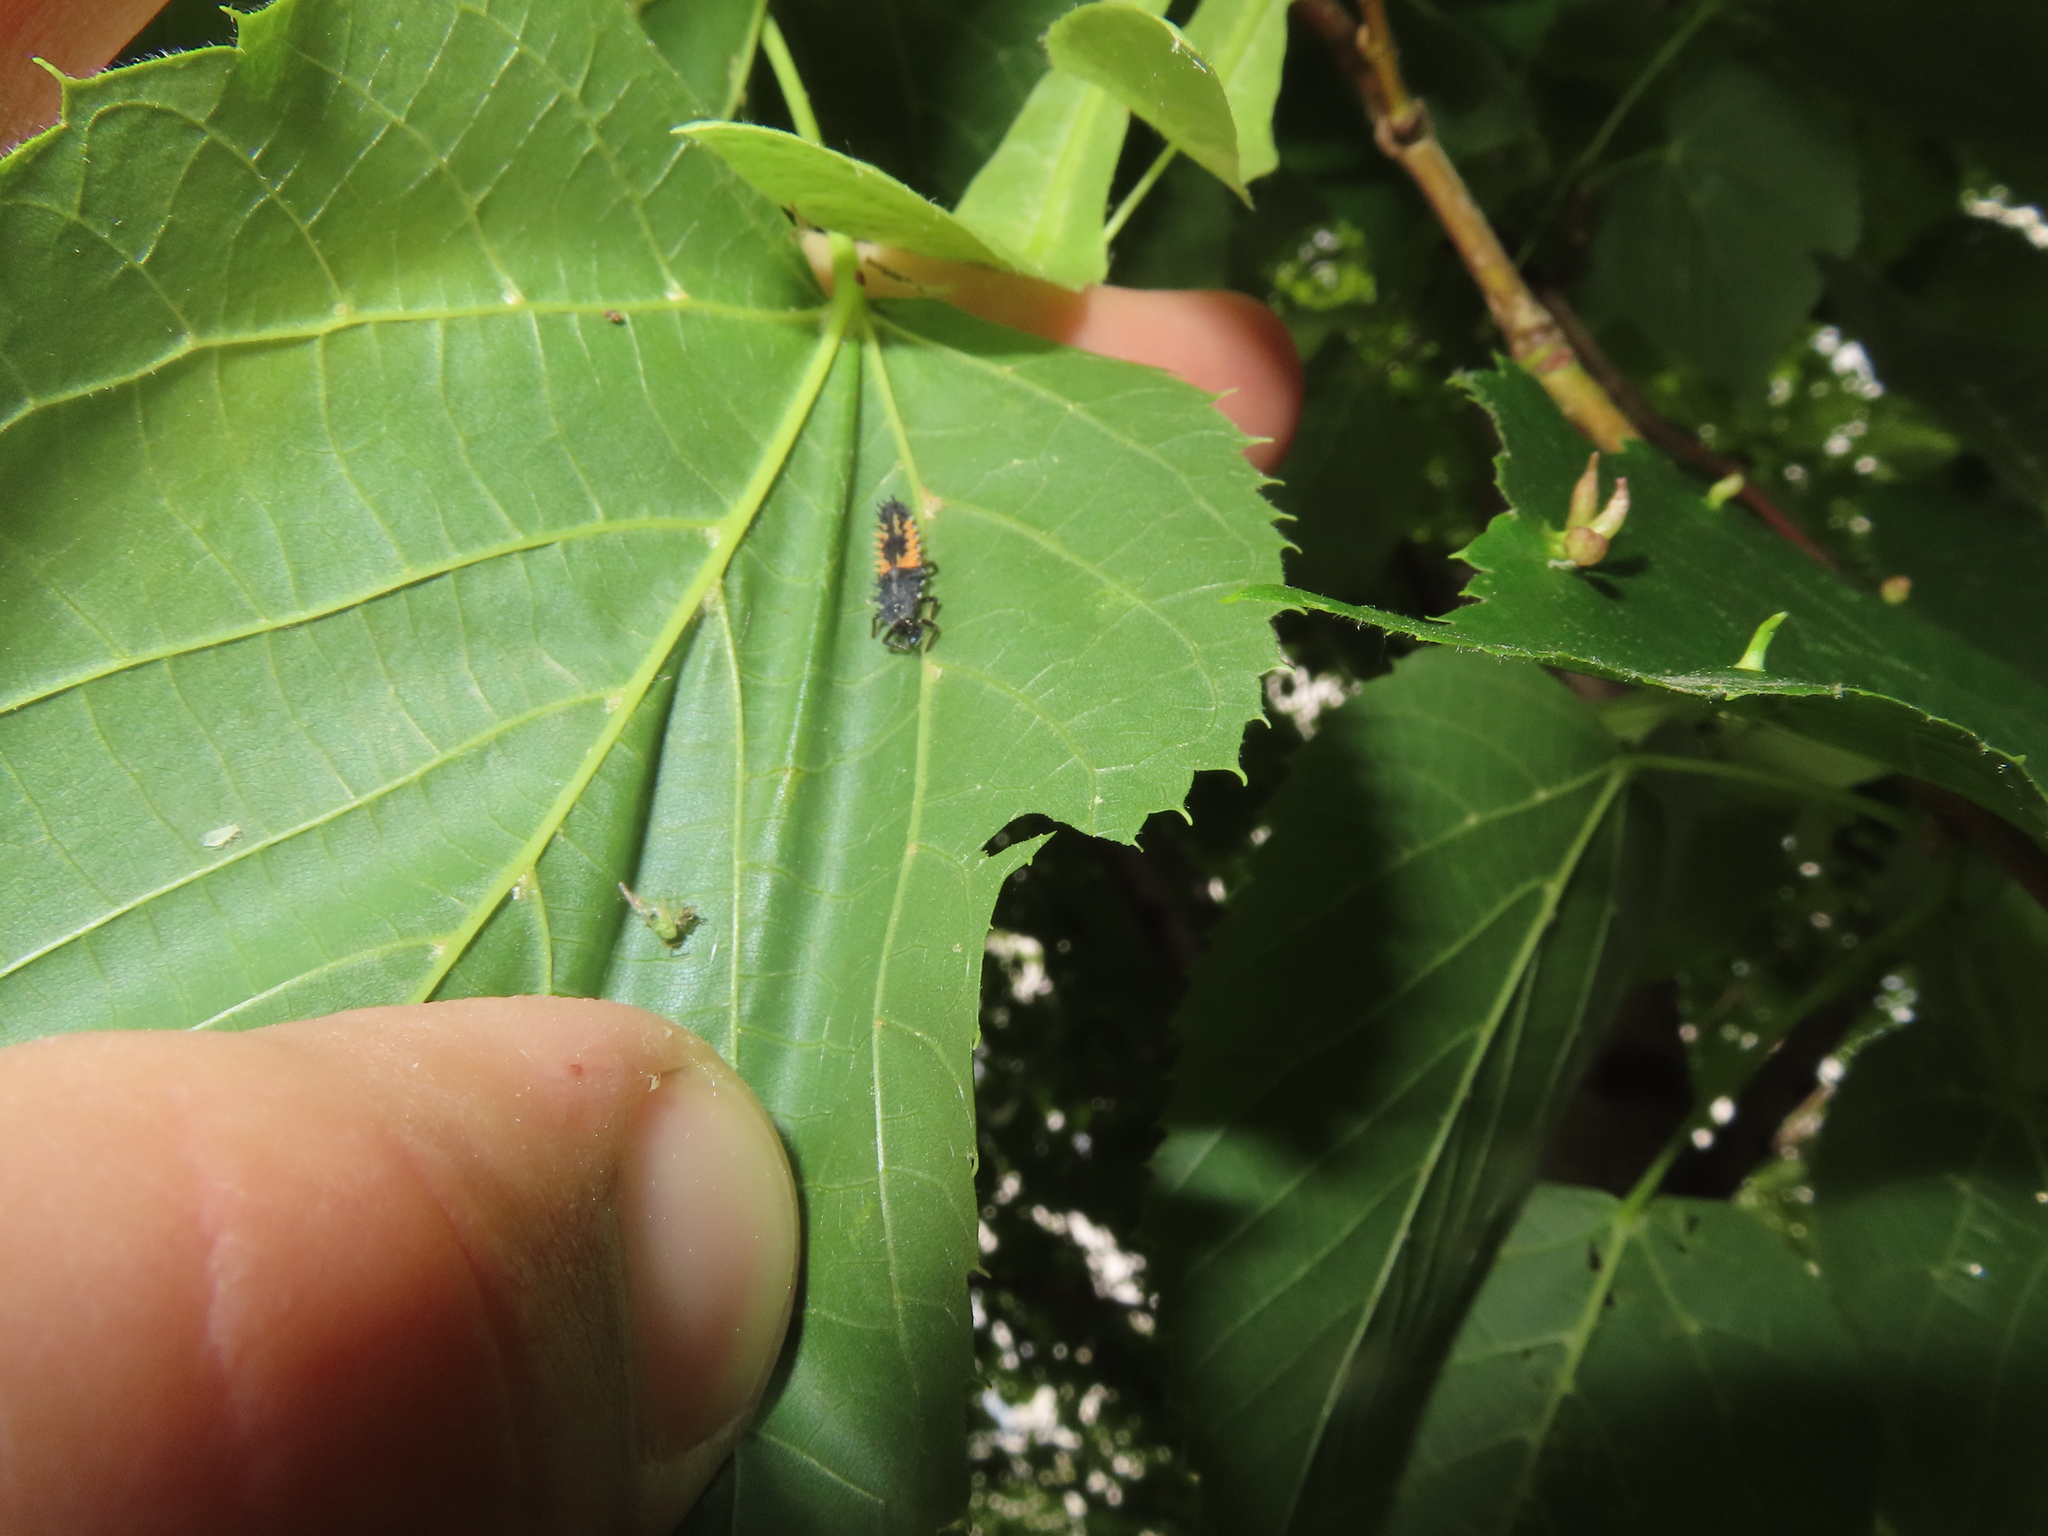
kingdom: Animalia
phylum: Arthropoda
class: Insecta
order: Coleoptera
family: Coccinellidae
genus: Harmonia
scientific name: Harmonia axyridis
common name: Harlequin ladybird
